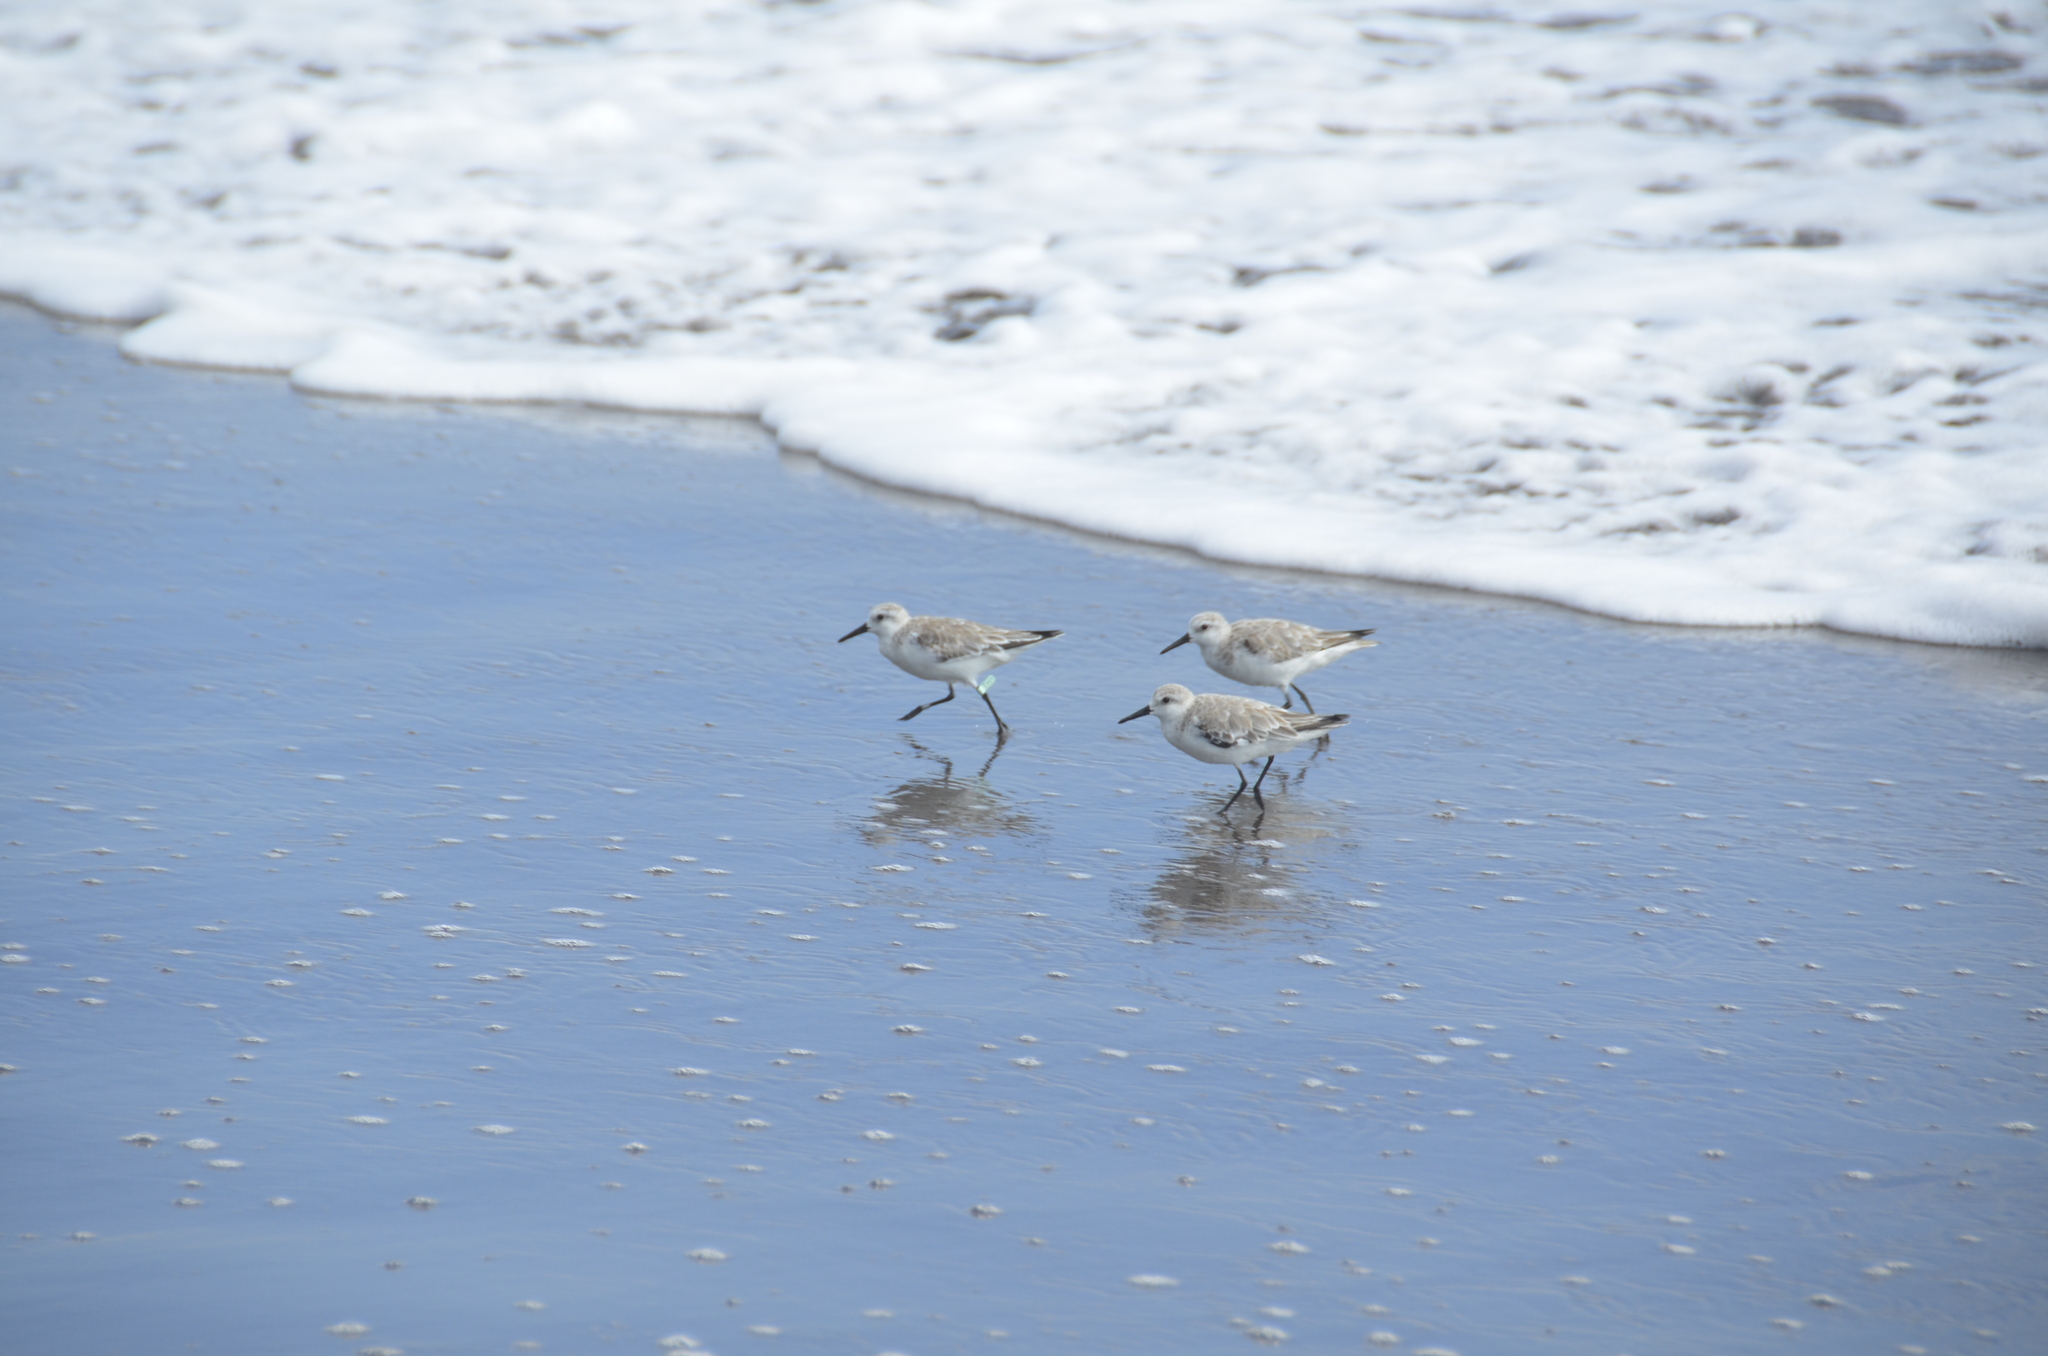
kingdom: Animalia
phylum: Chordata
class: Aves
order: Charadriiformes
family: Scolopacidae
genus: Calidris
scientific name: Calidris alba
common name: Sanderling
